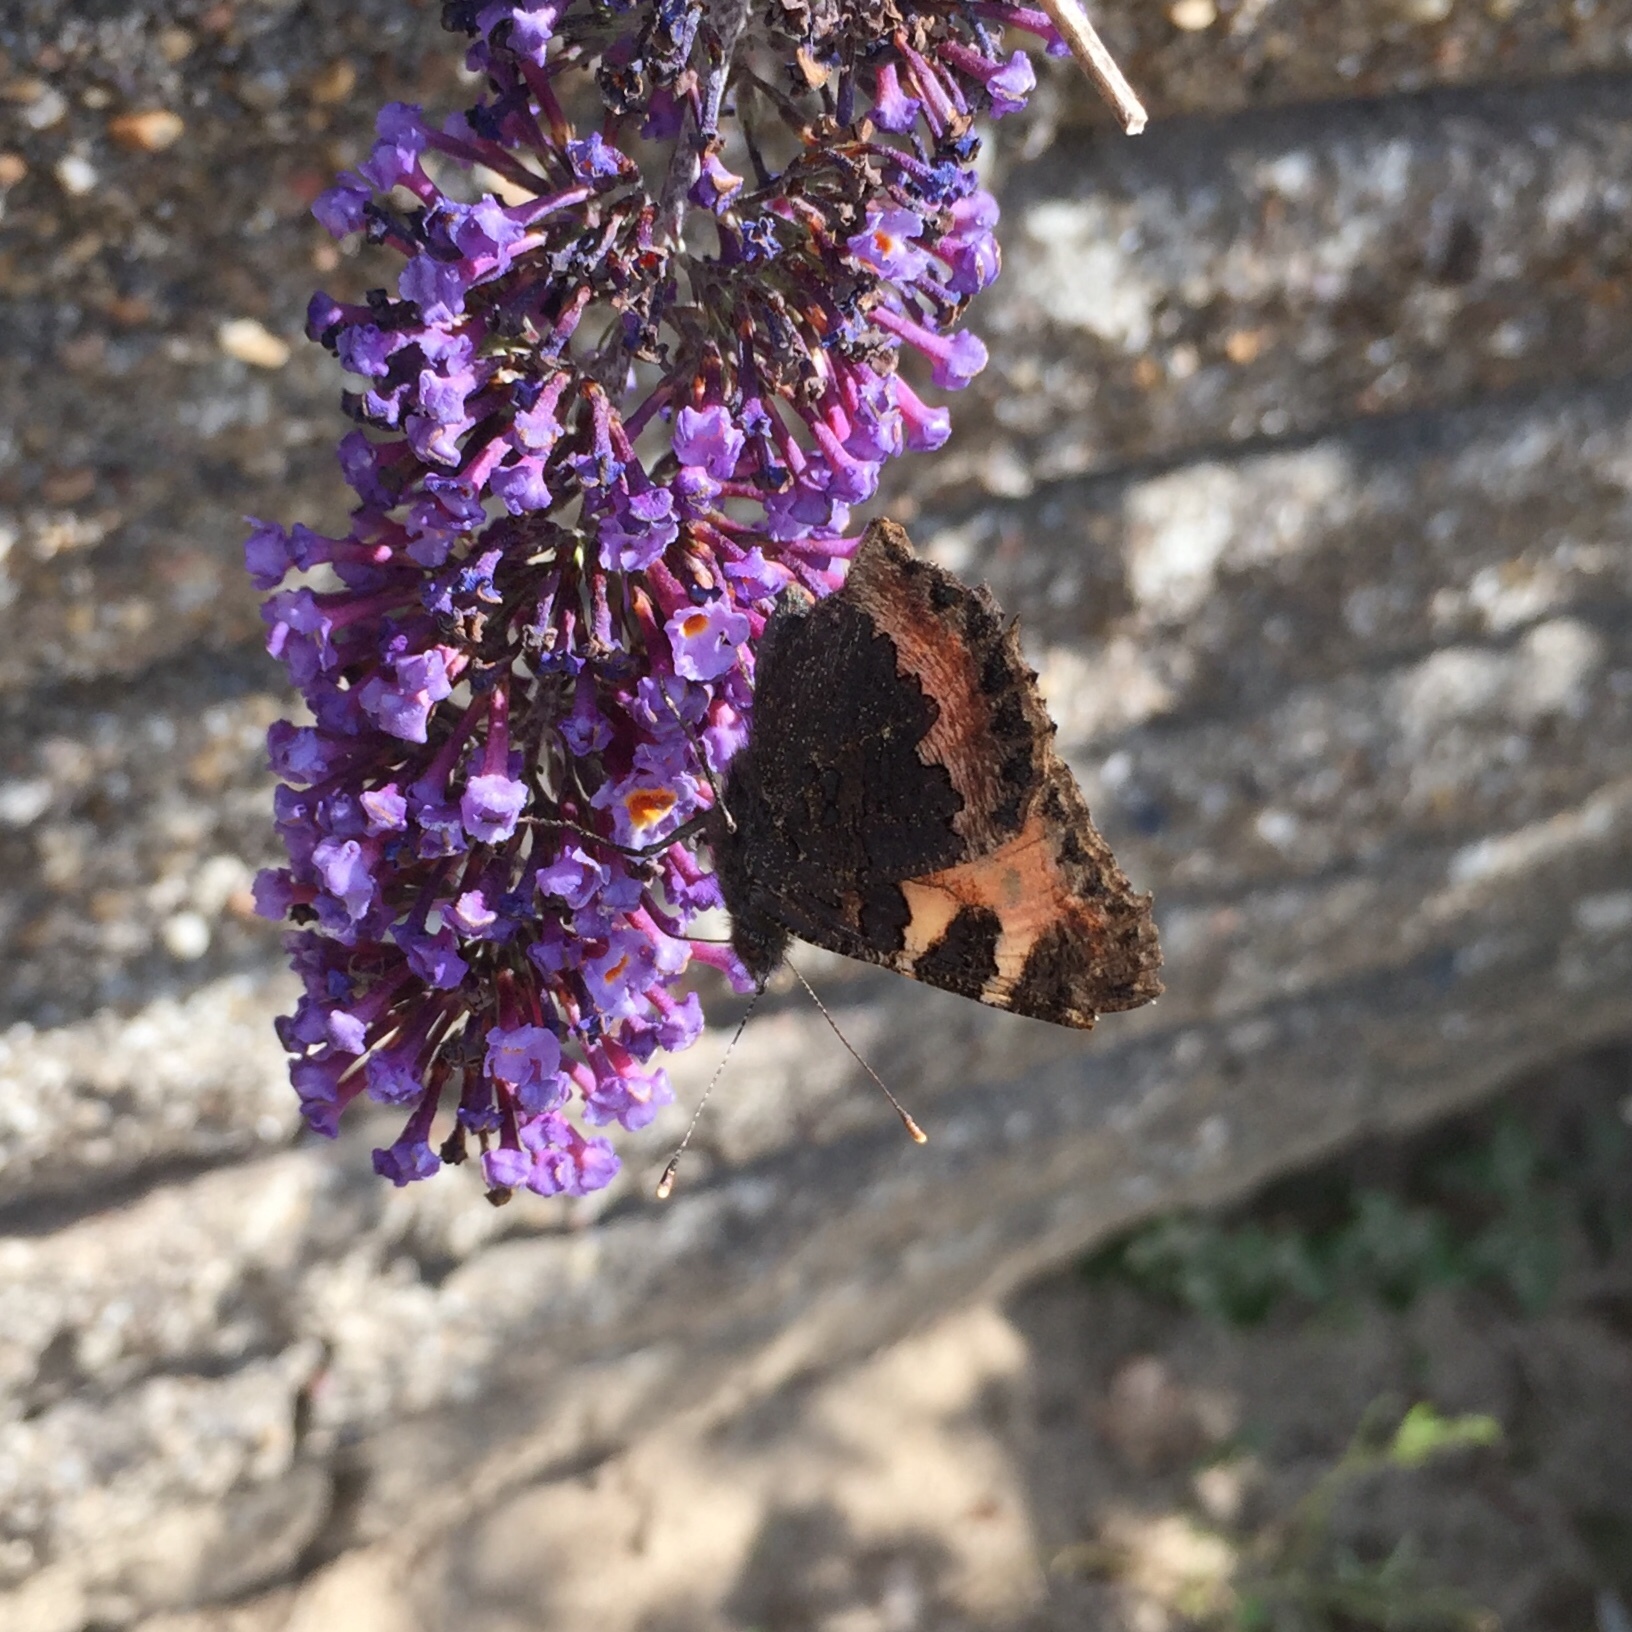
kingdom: Animalia
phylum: Arthropoda
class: Insecta
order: Lepidoptera
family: Nymphalidae
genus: Aglais
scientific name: Aglais urticae
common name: Small tortoiseshell
